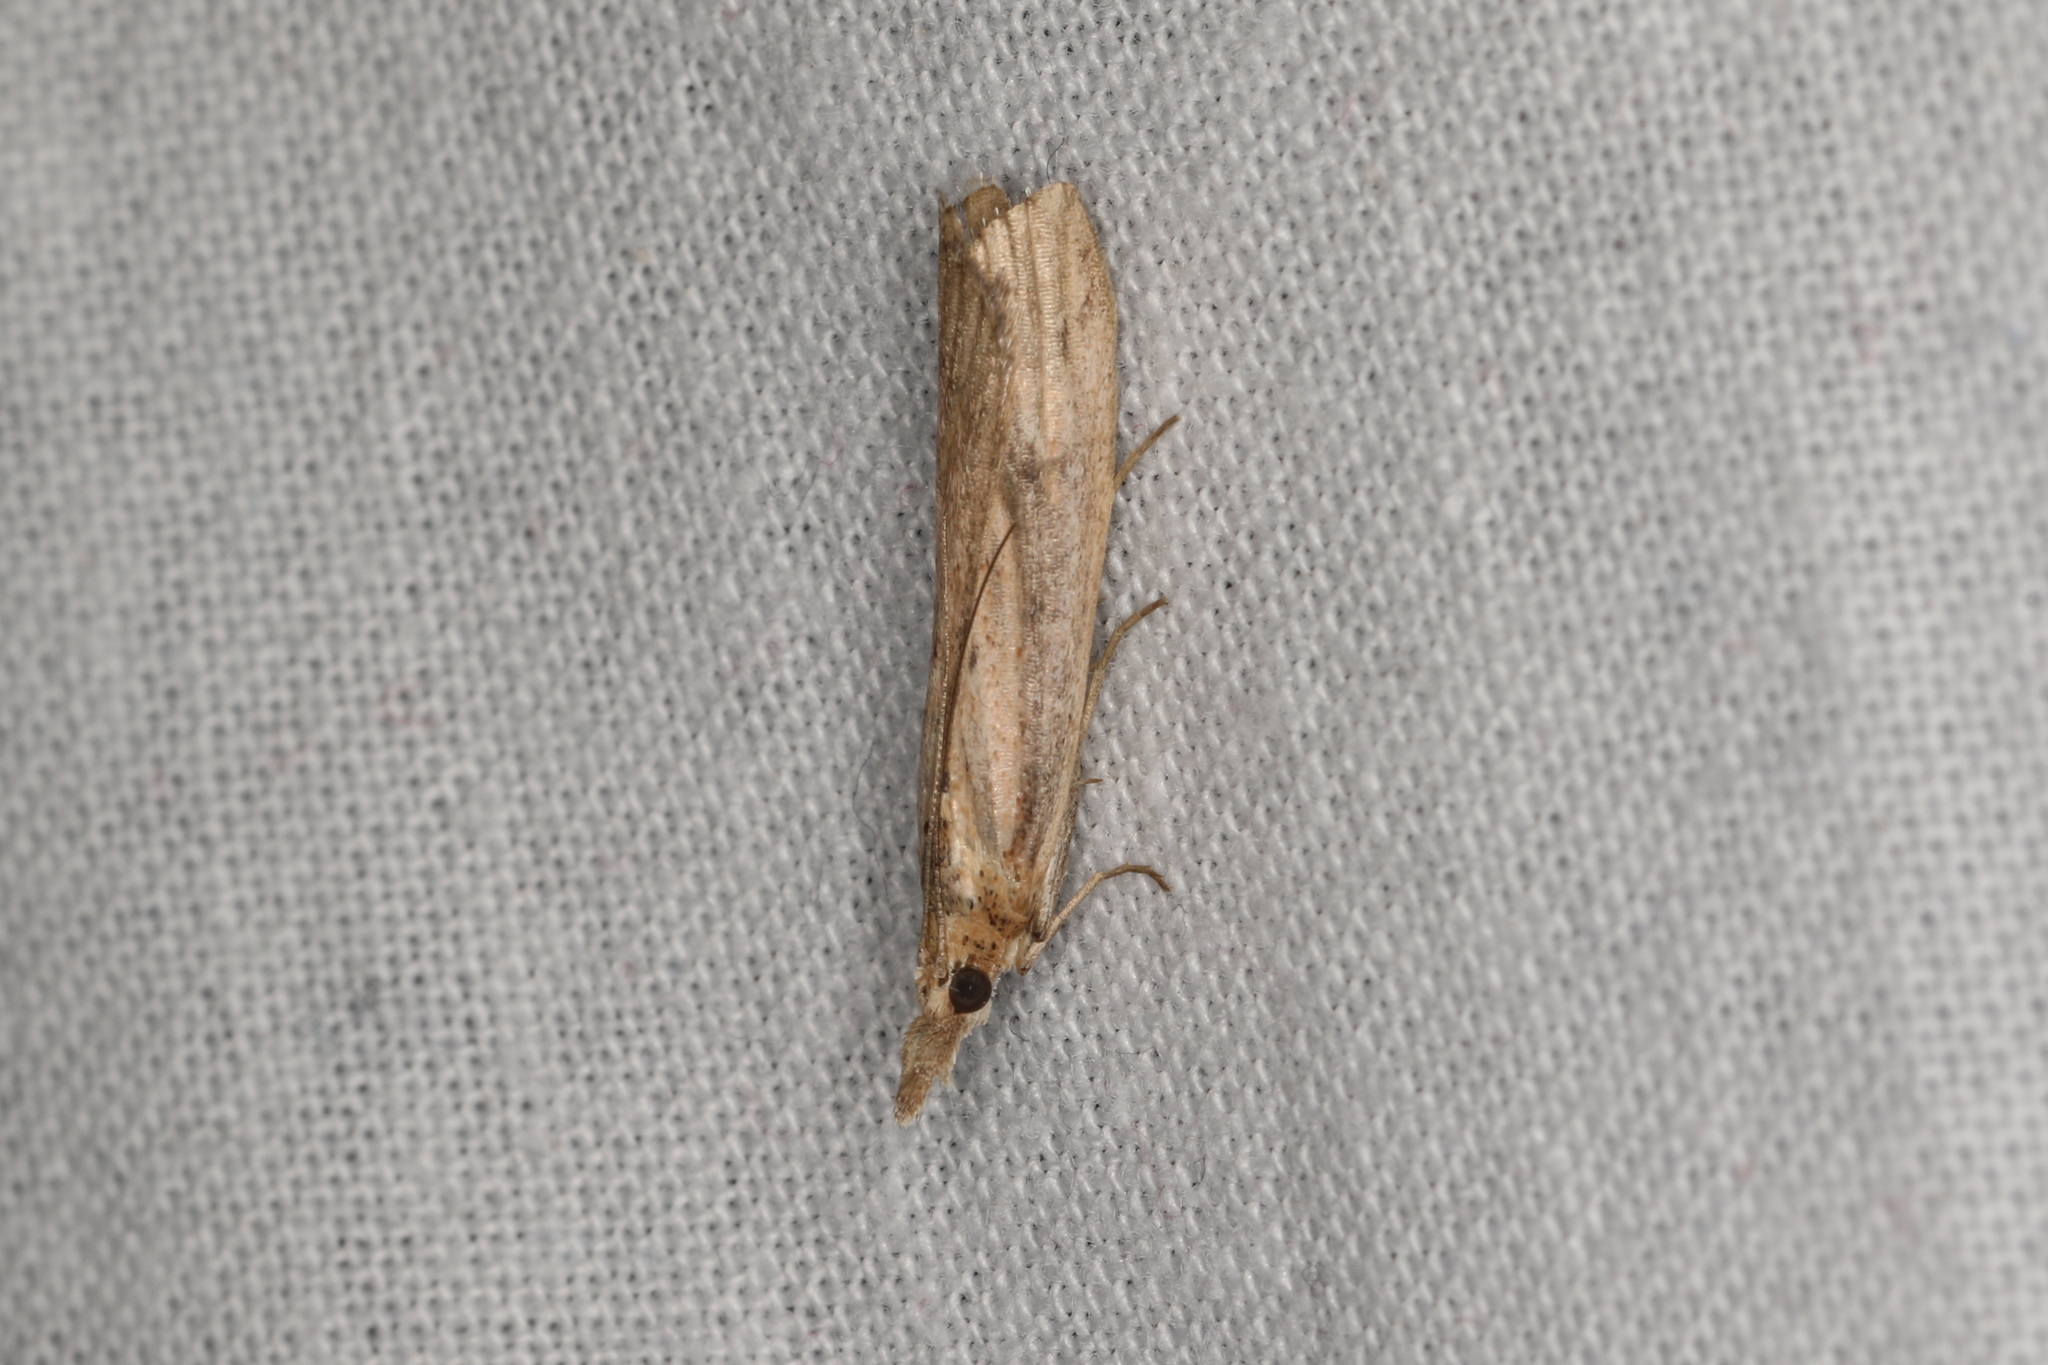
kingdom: Animalia
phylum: Arthropoda
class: Insecta
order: Lepidoptera
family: Pyralidae
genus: Faveria
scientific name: Faveria tritalis
